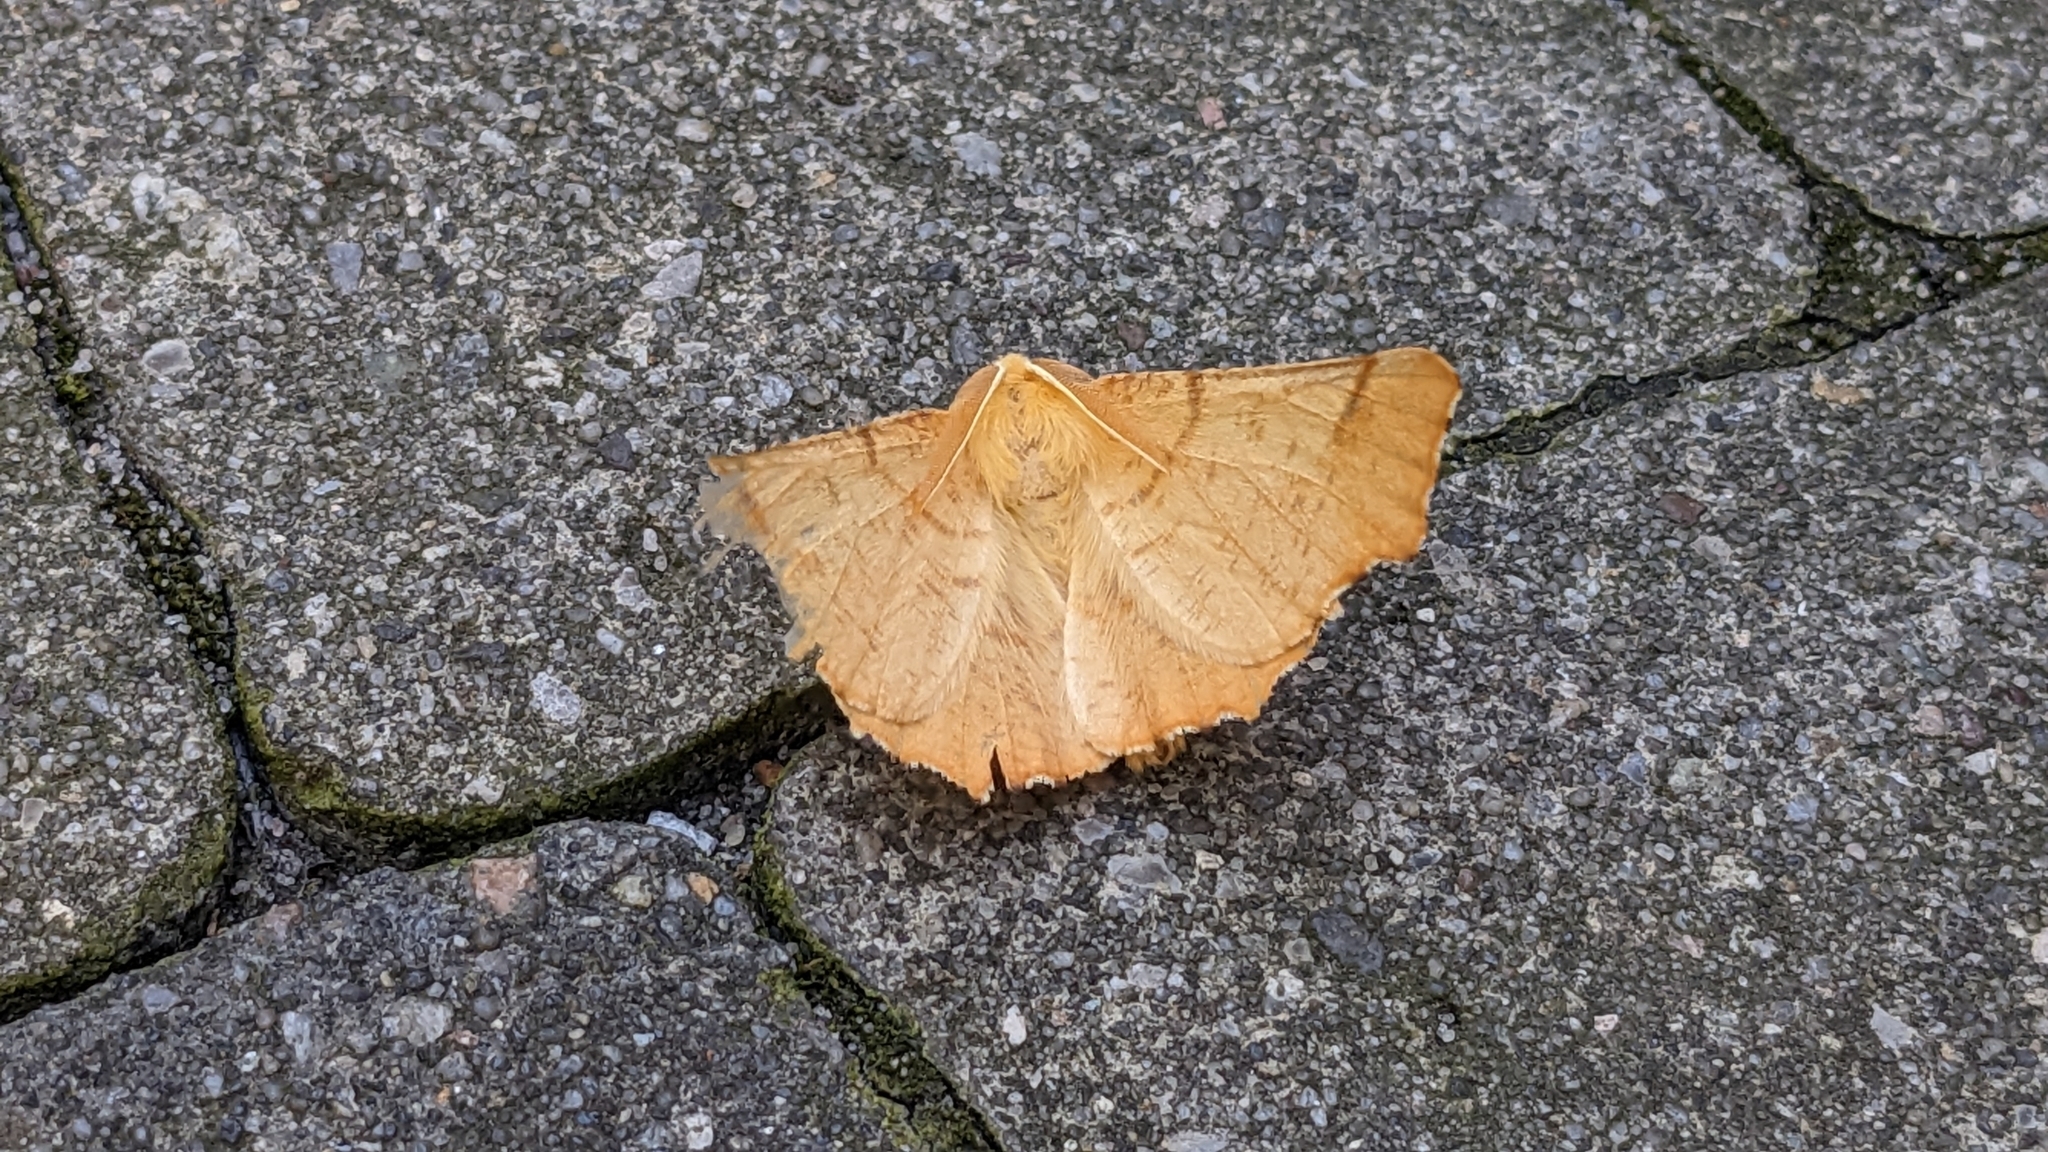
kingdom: Animalia
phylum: Arthropoda
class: Insecta
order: Lepidoptera
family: Geometridae
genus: Ennomos
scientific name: Ennomos autumnaria
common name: Large thorn
